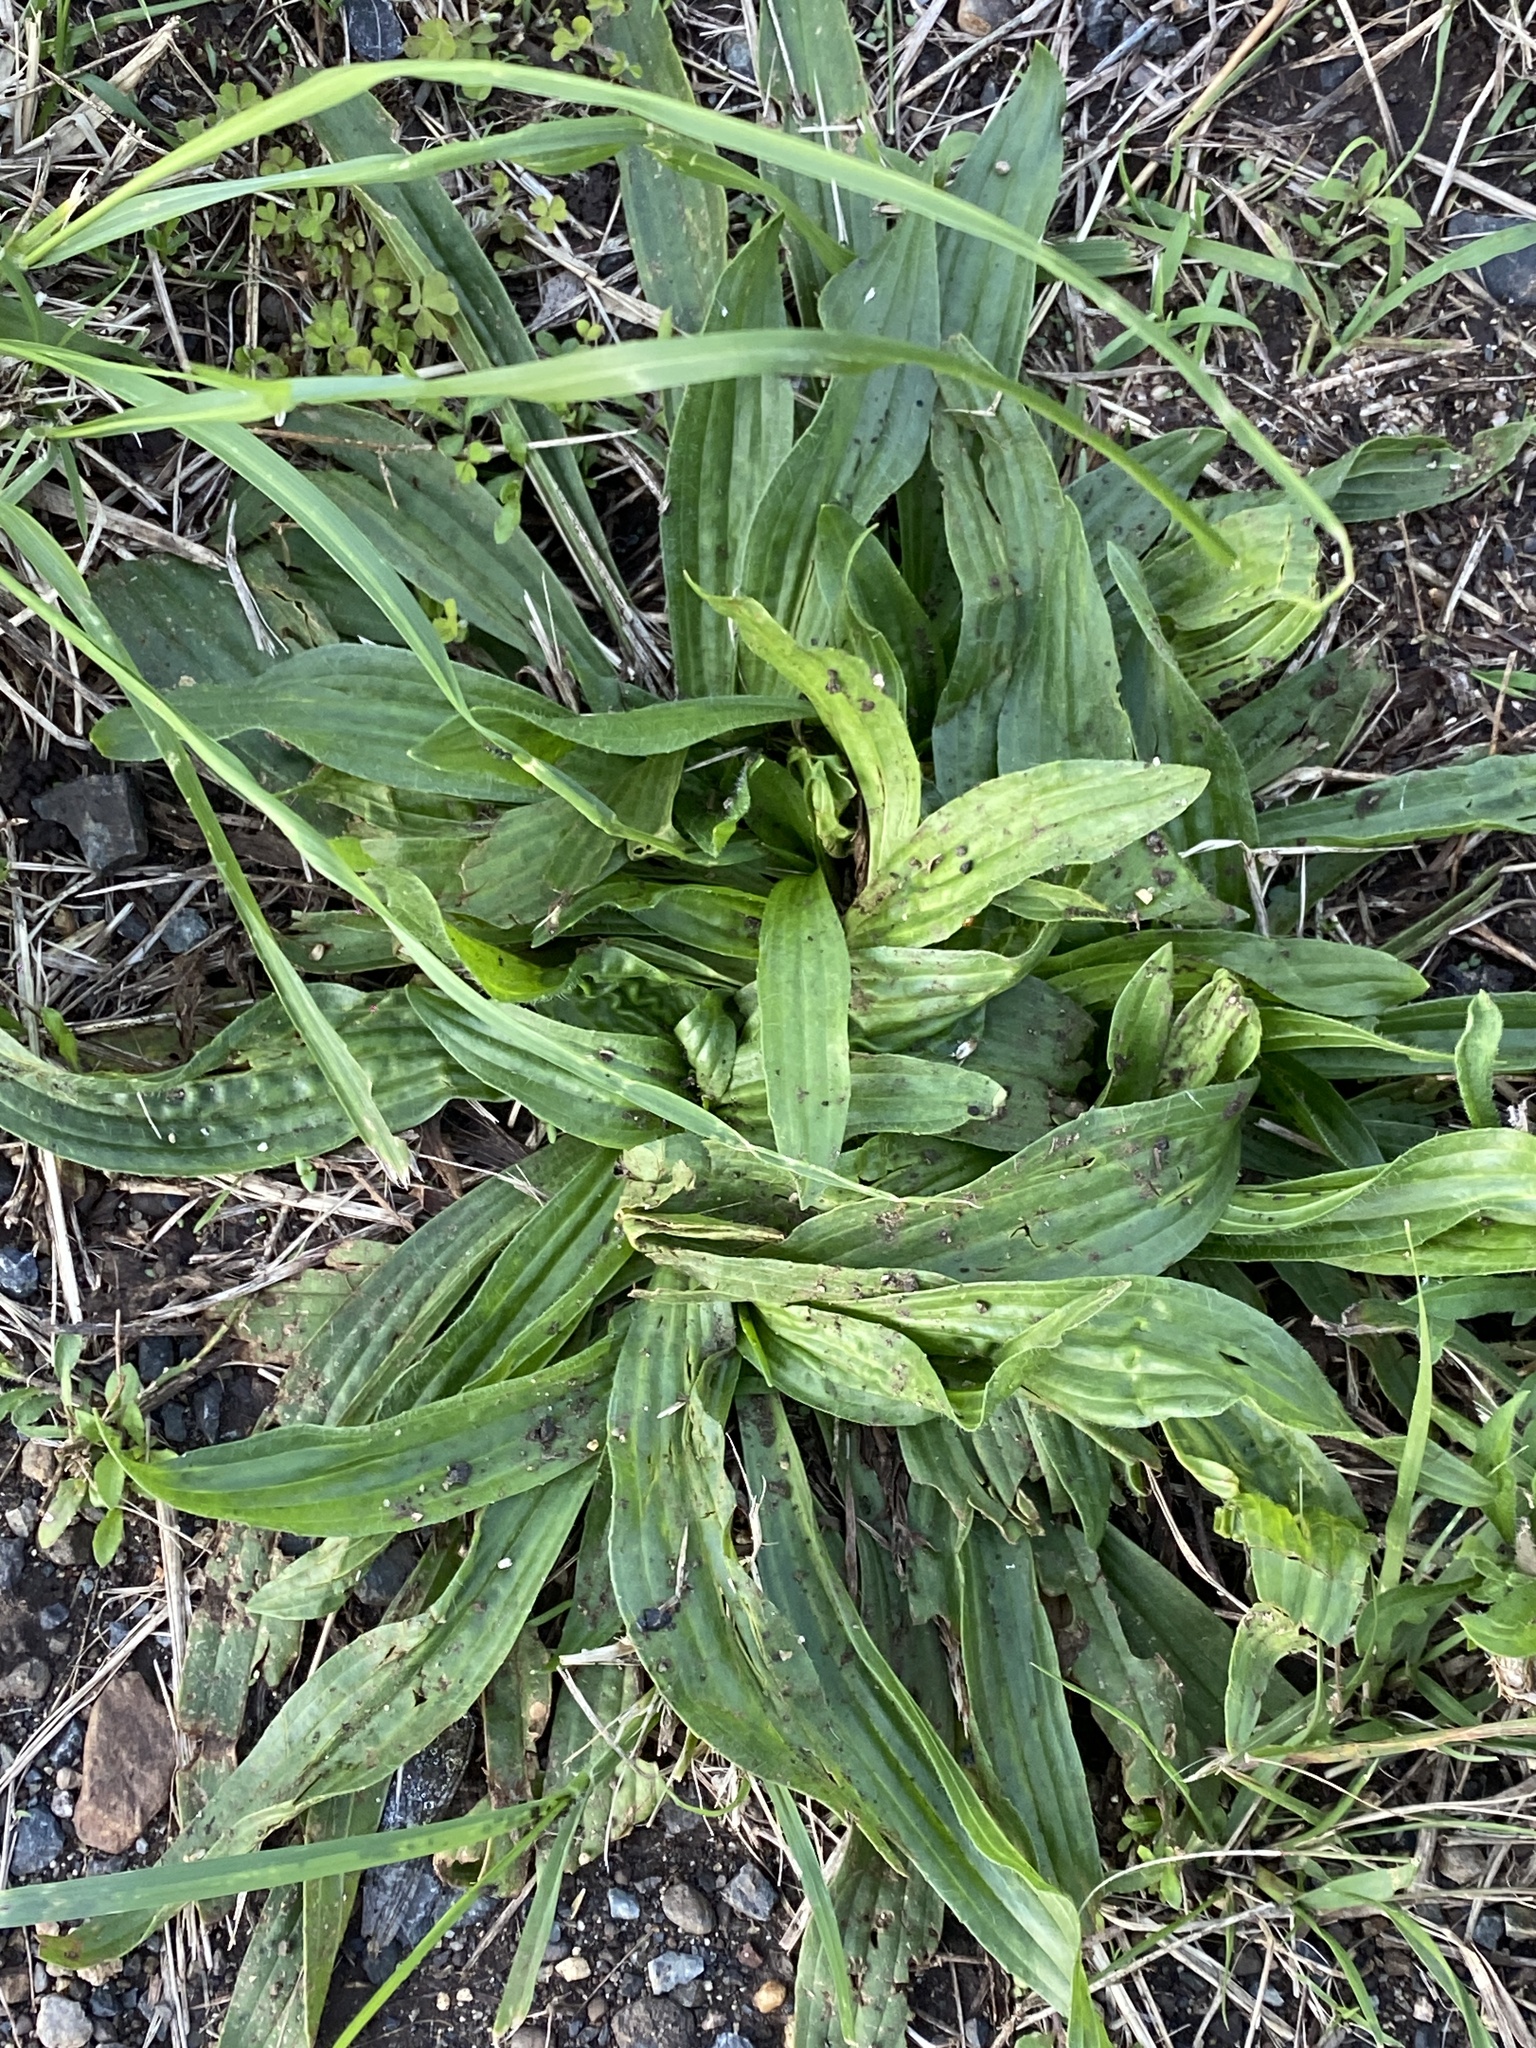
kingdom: Plantae
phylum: Tracheophyta
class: Magnoliopsida
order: Lamiales
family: Plantaginaceae
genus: Plantago
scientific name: Plantago lanceolata
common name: Ribwort plantain
